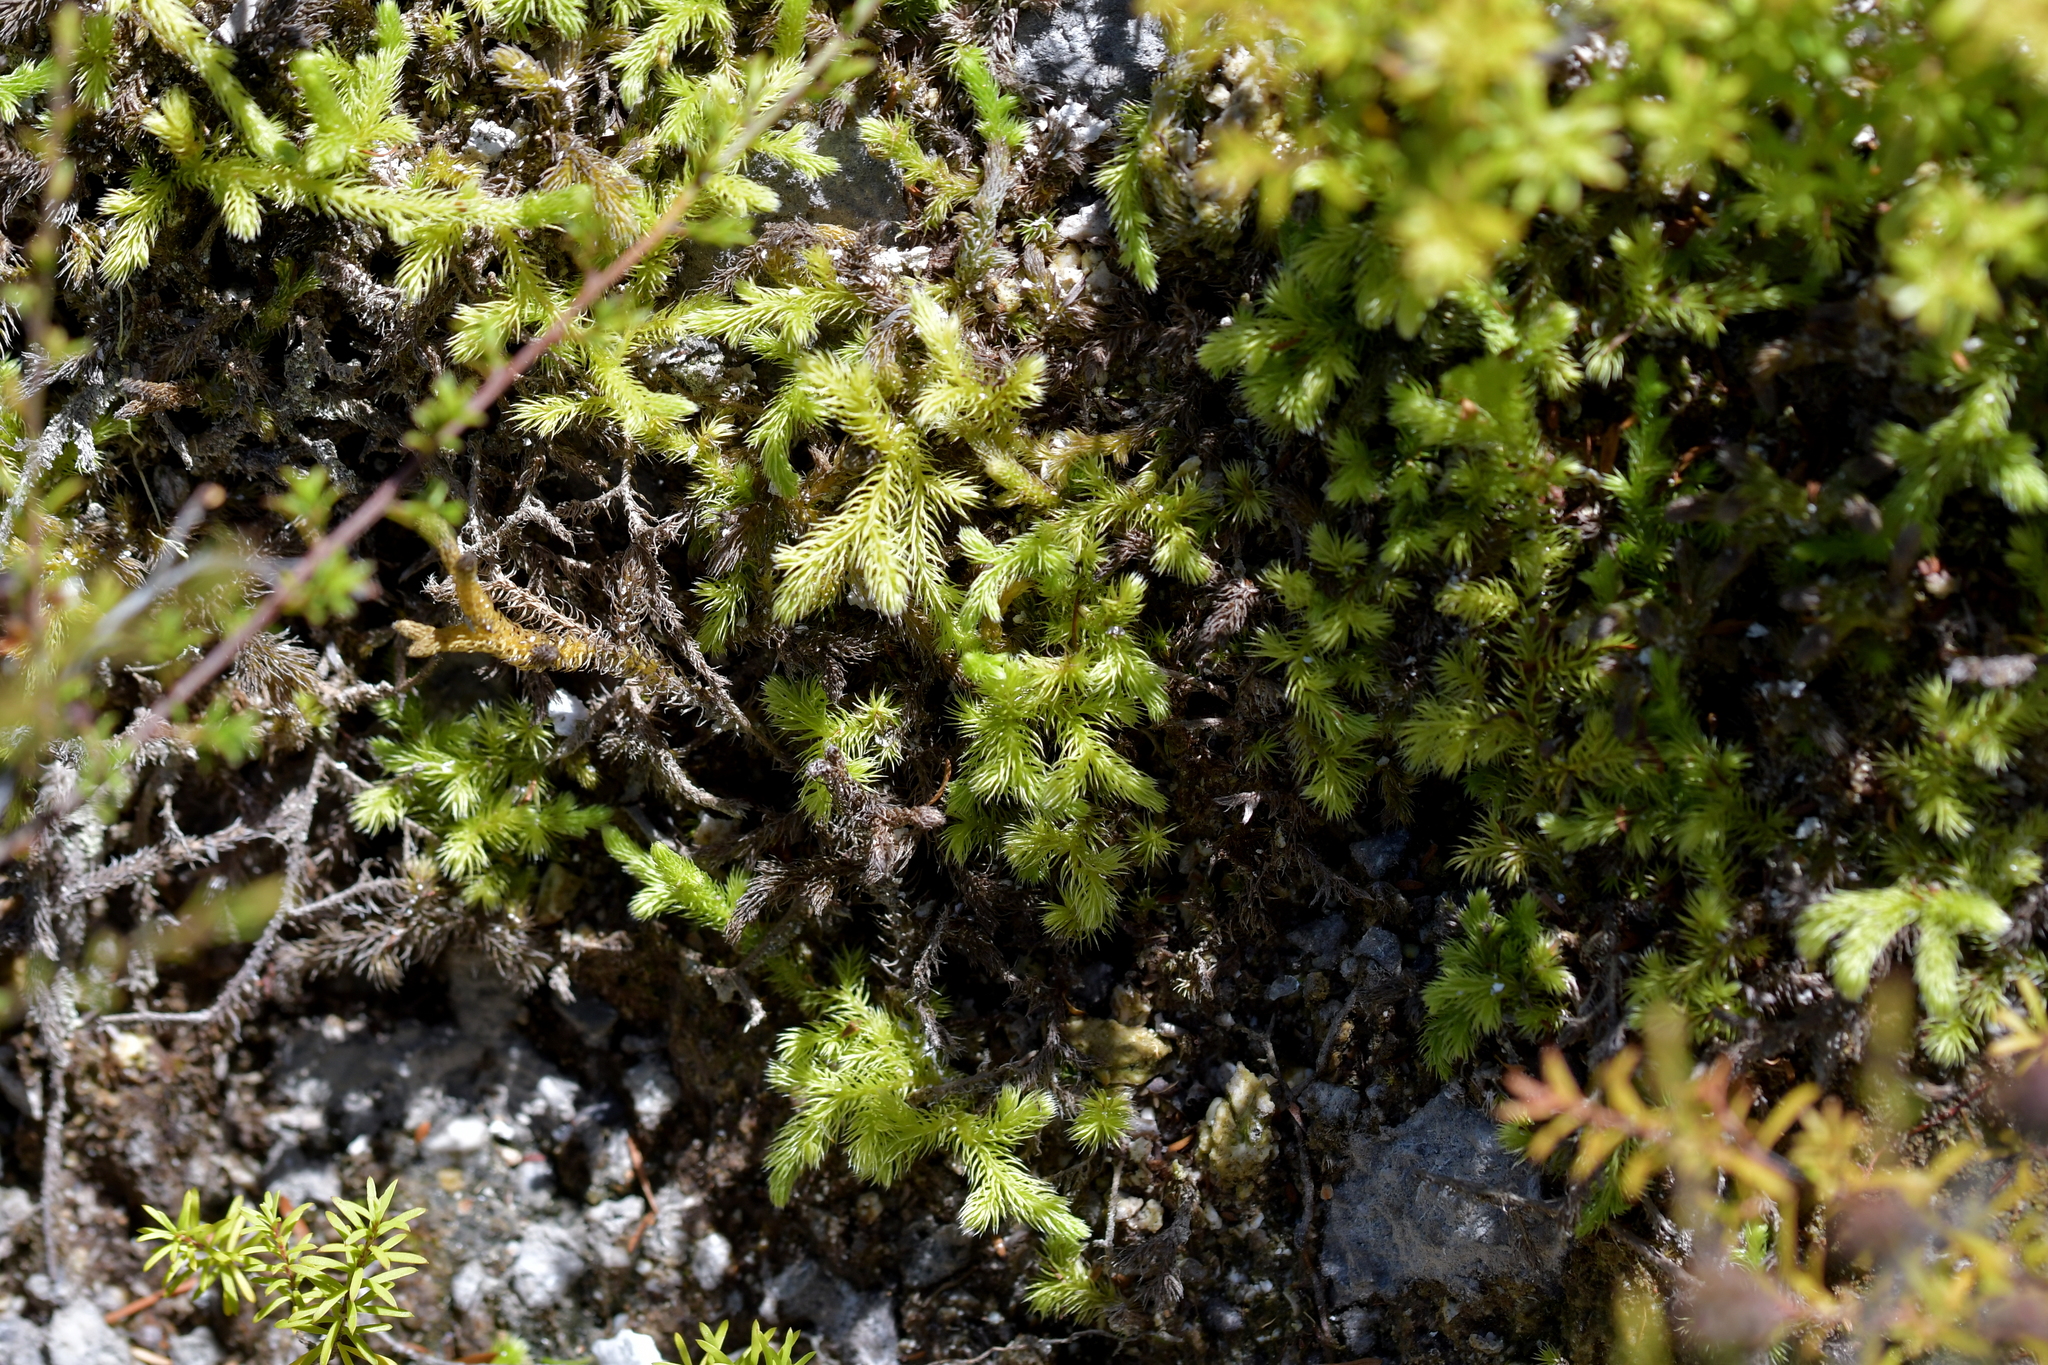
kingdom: Plantae
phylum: Tracheophyta
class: Lycopodiopsida
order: Lycopodiales
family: Lycopodiaceae
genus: Palhinhaea
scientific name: Palhinhaea cernua
